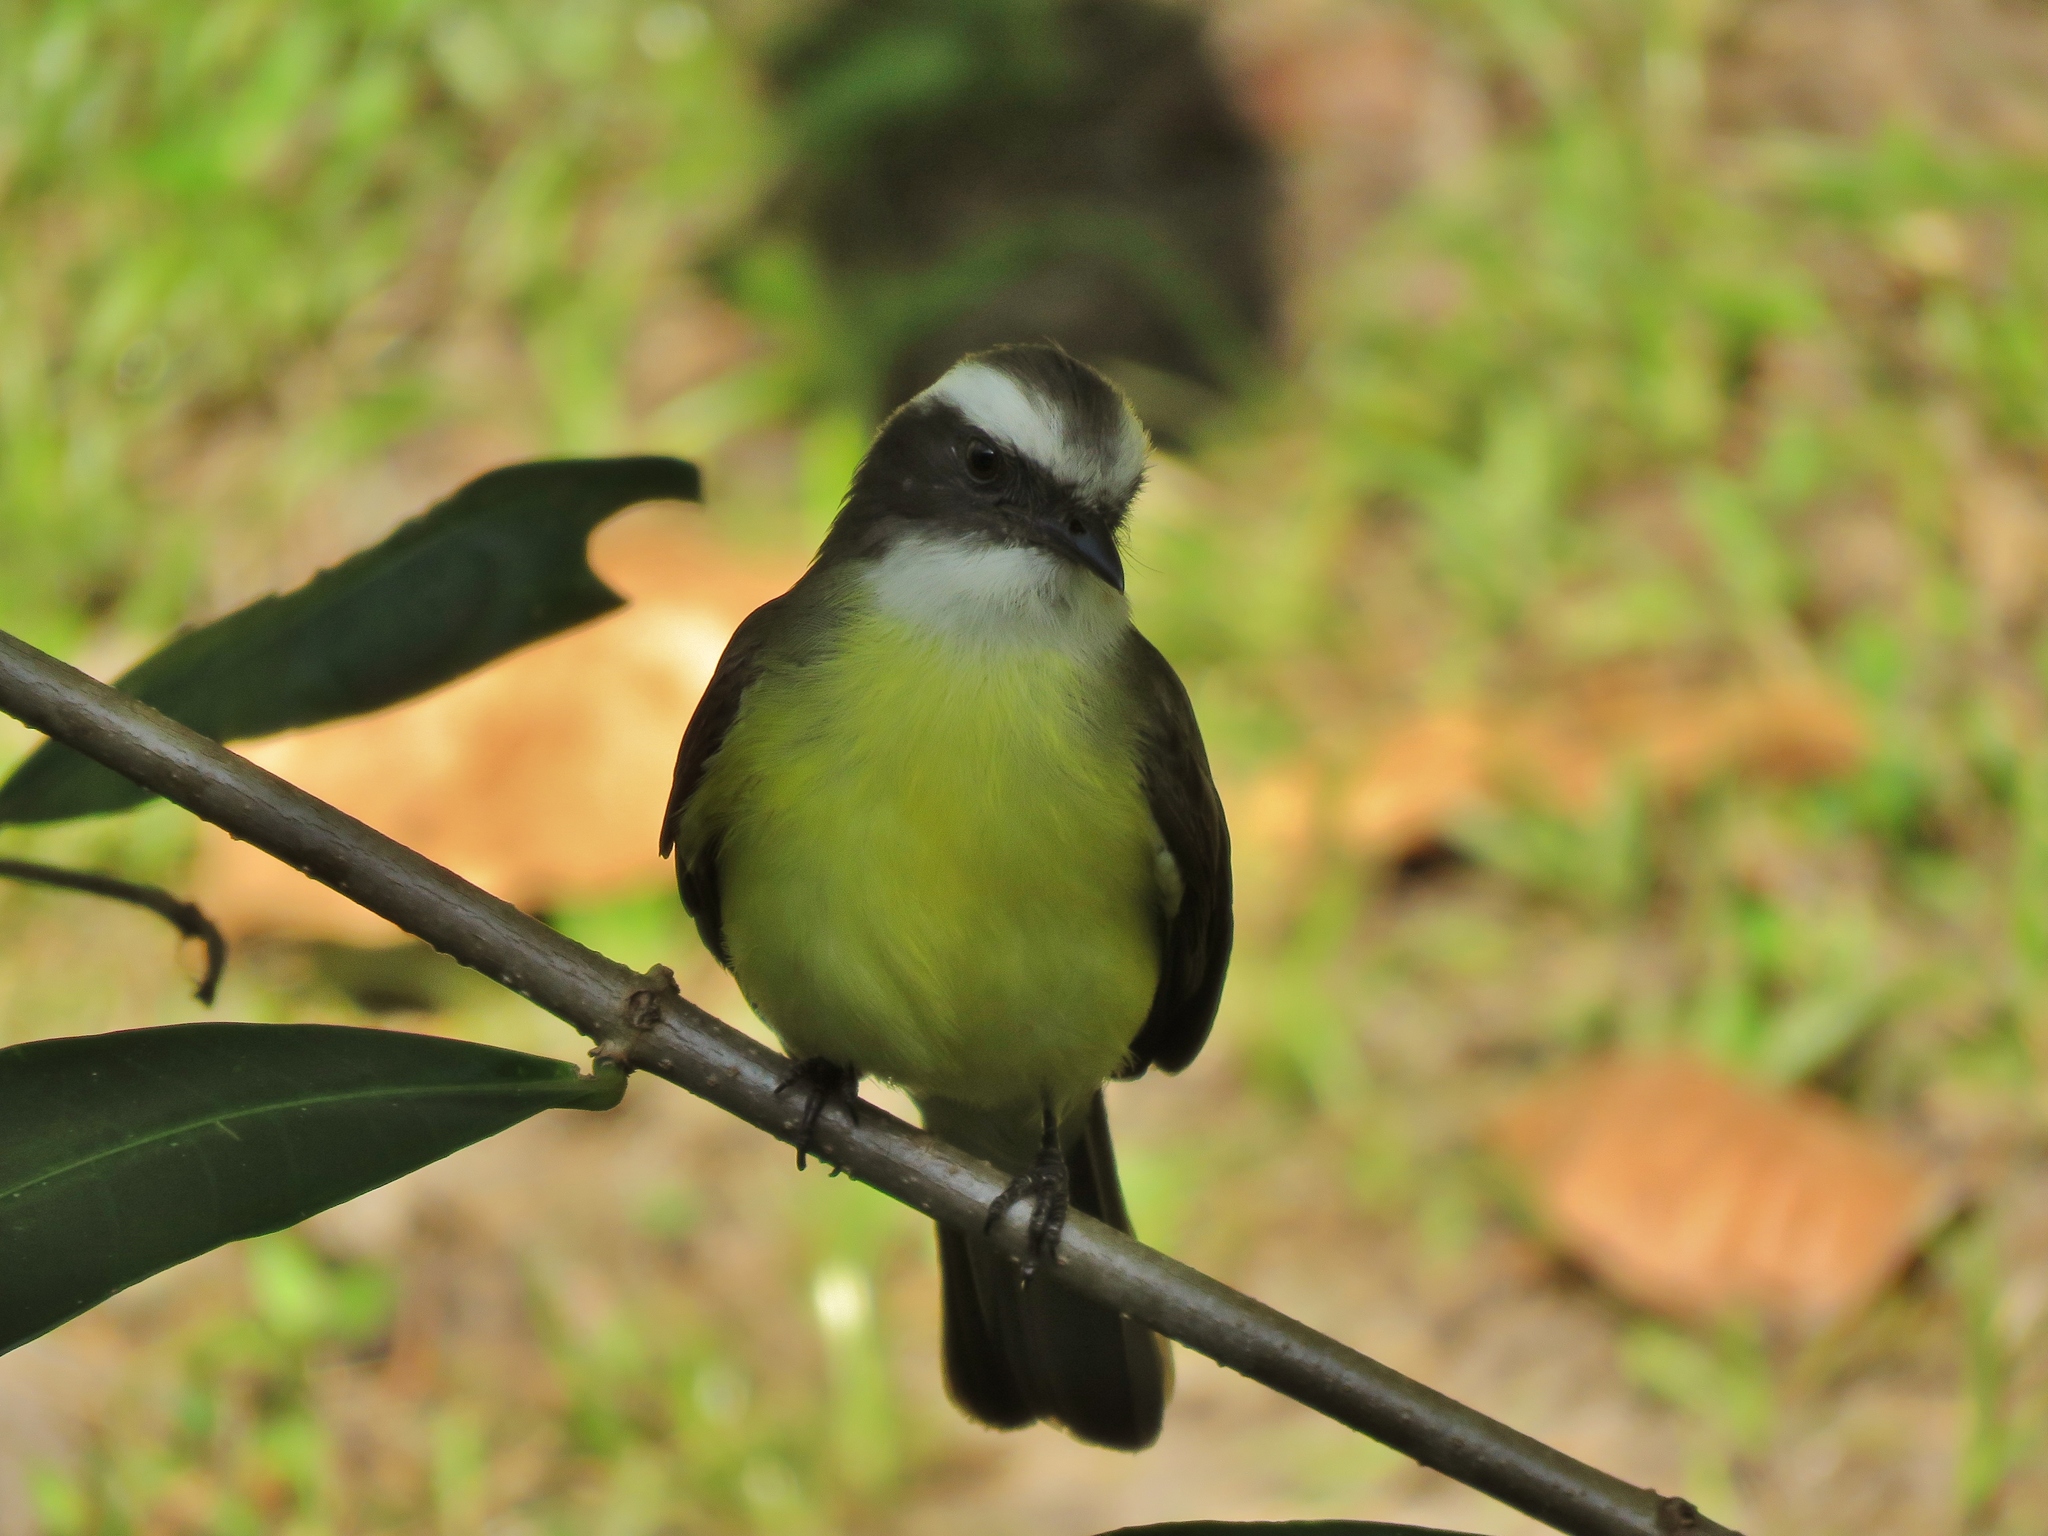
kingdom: Animalia
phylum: Chordata
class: Aves
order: Passeriformes
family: Tyrannidae
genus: Myiozetetes
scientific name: Myiozetetes similis
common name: Social flycatcher
